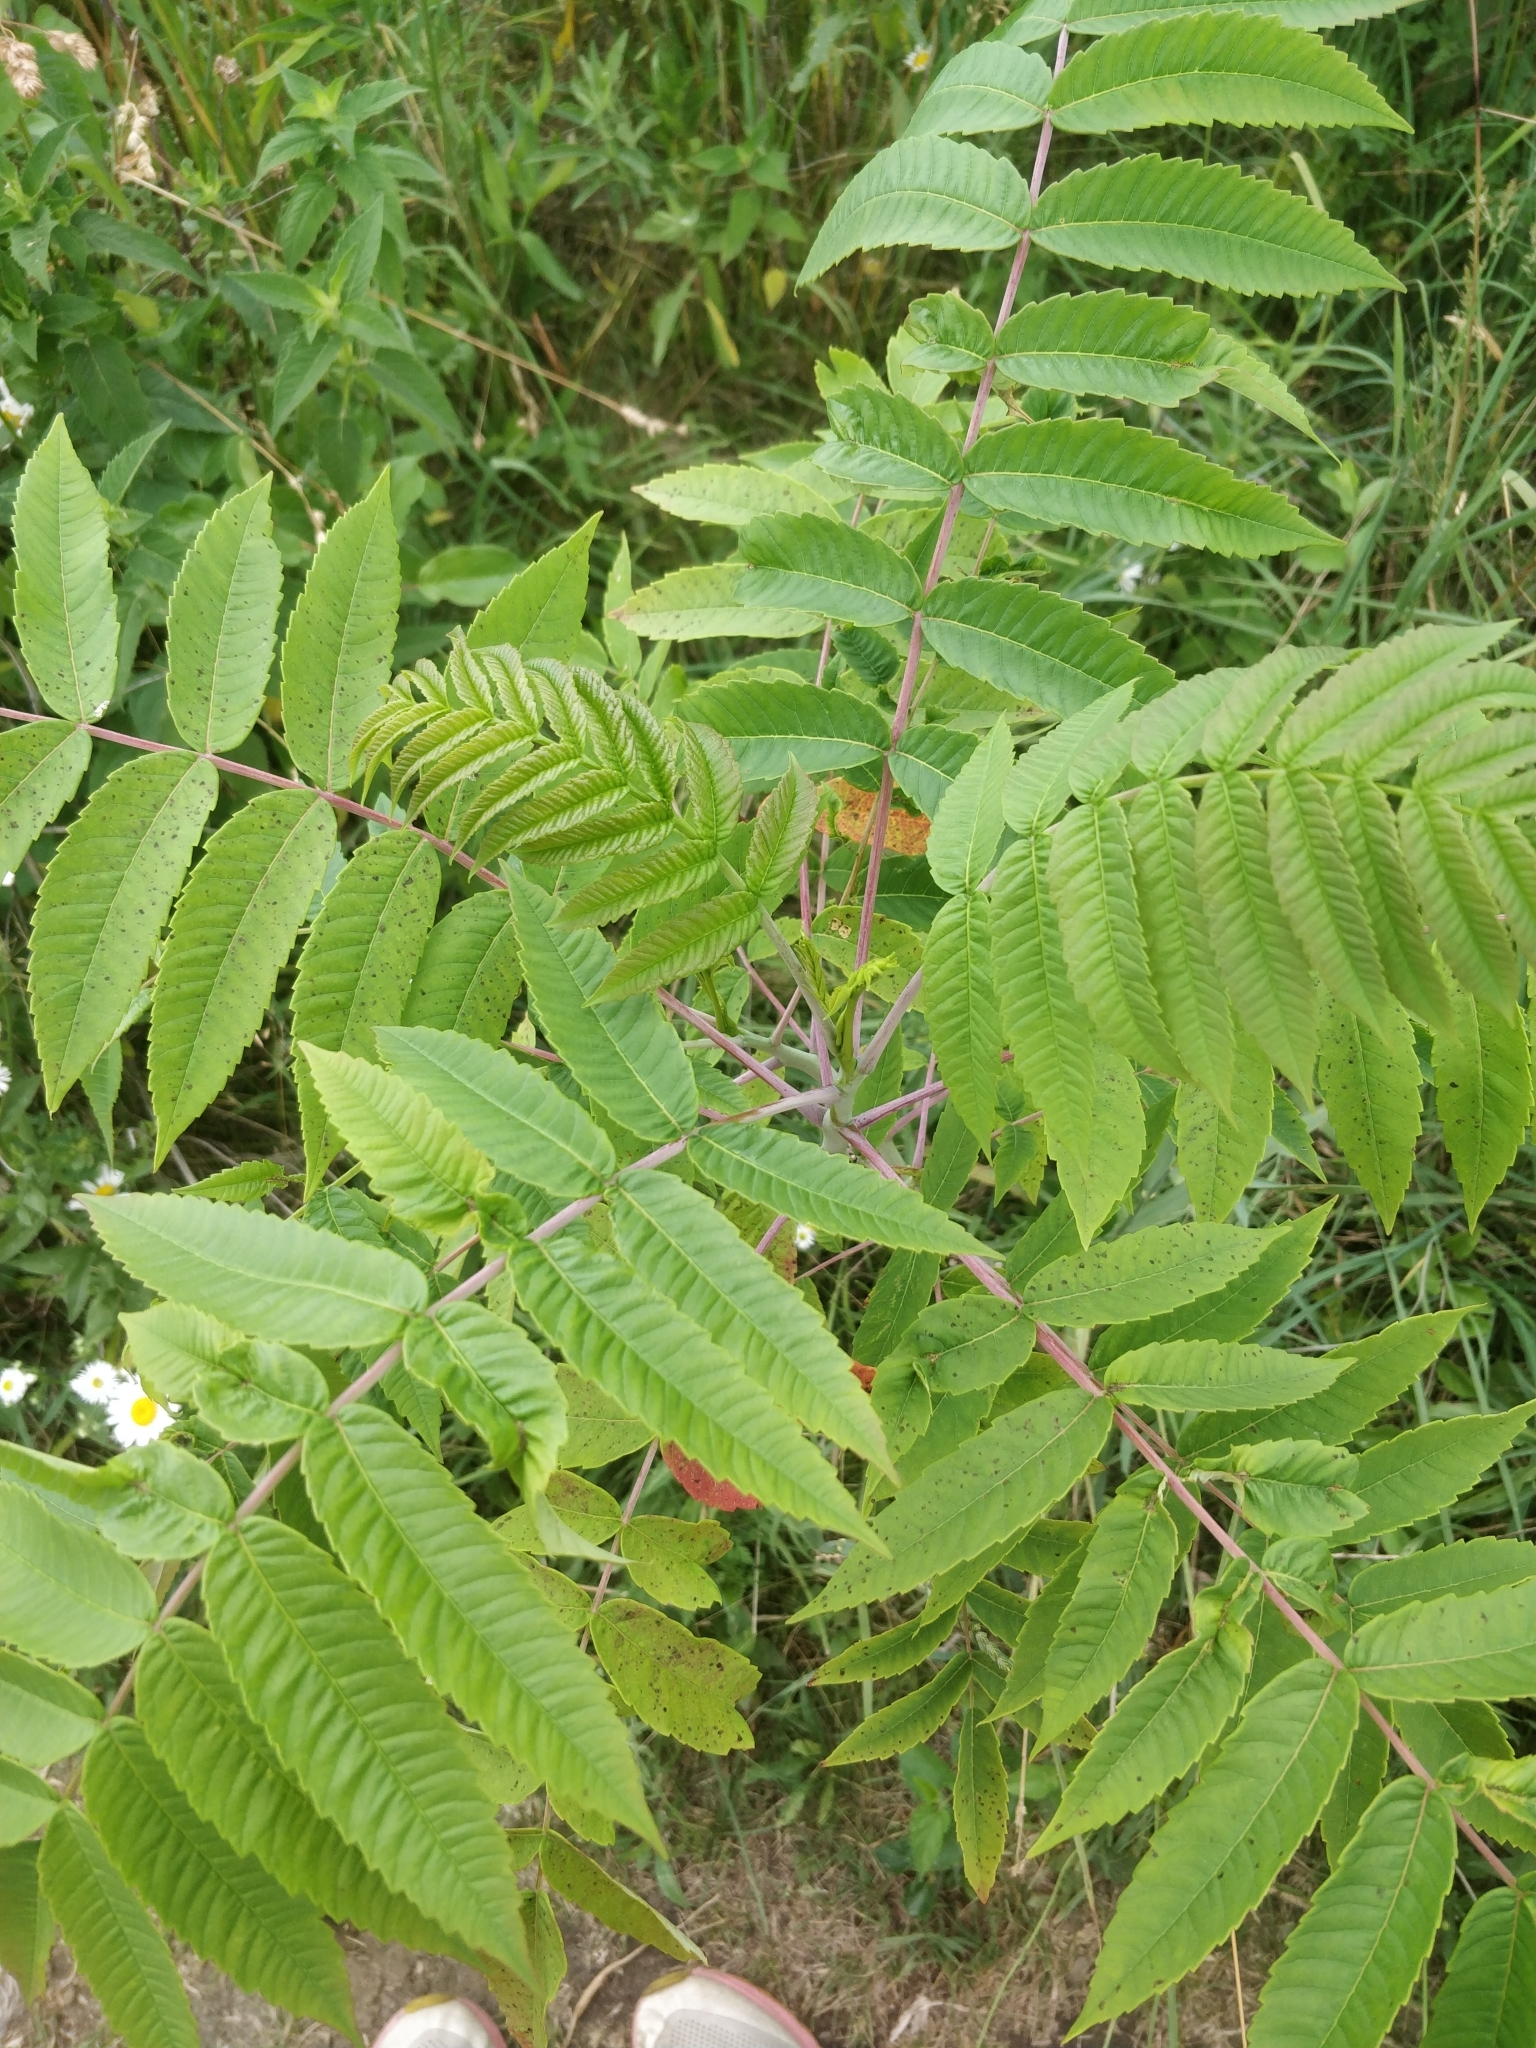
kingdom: Plantae
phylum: Tracheophyta
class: Magnoliopsida
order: Sapindales
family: Anacardiaceae
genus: Rhus
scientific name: Rhus glabra
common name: Scarlet sumac
